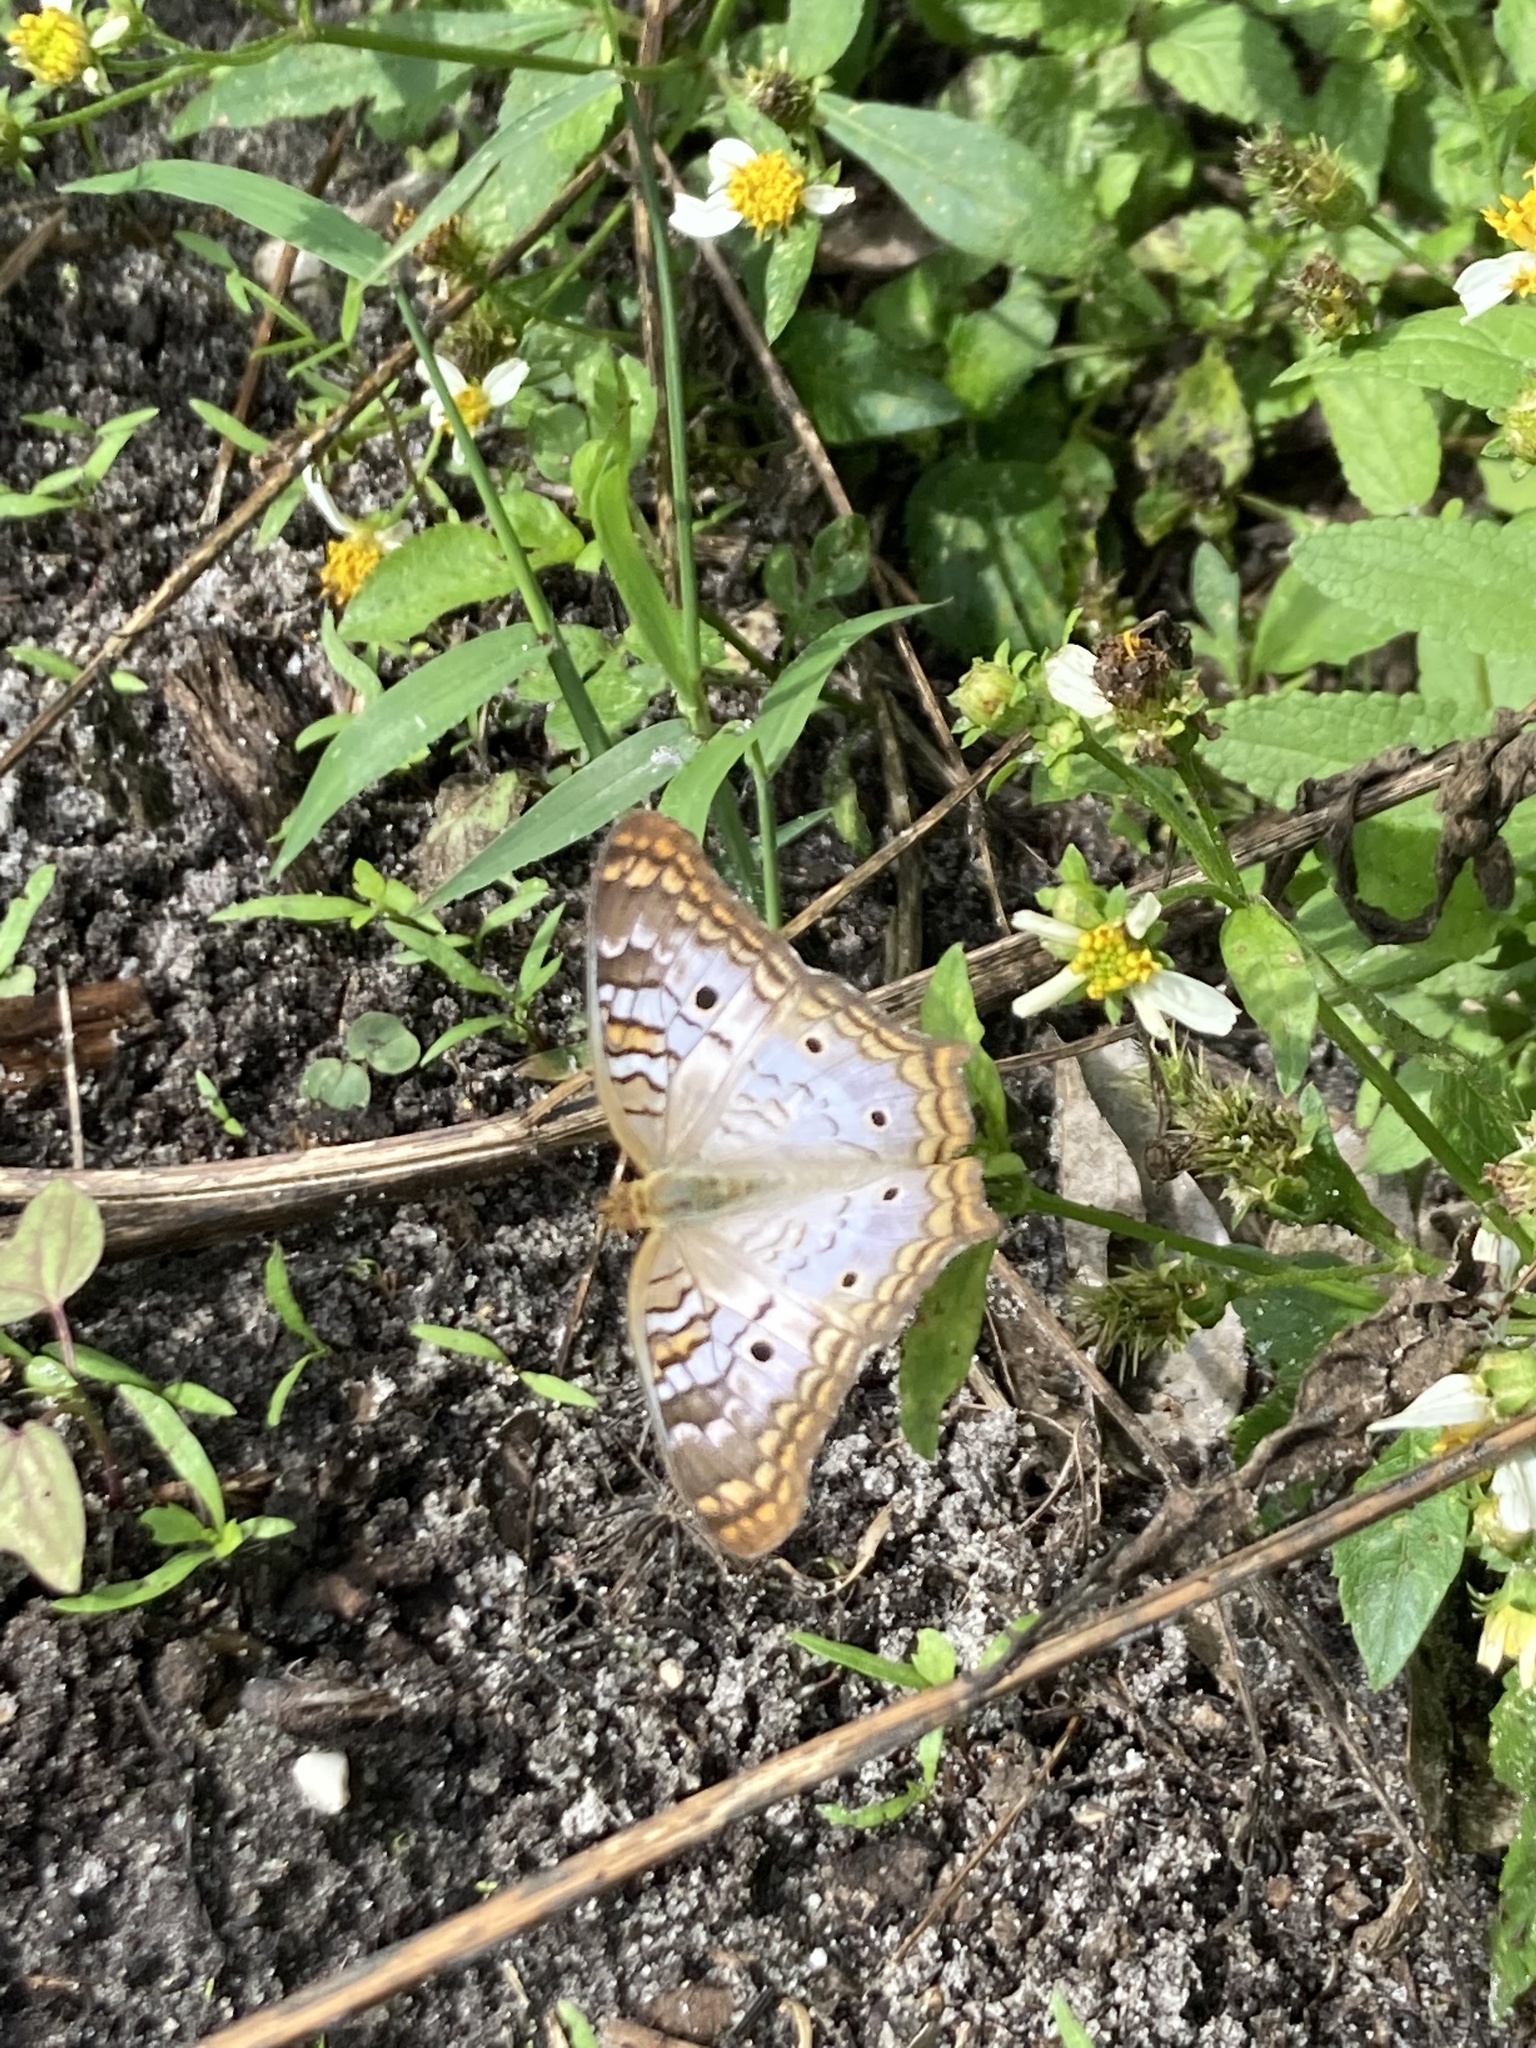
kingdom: Animalia
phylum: Arthropoda
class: Insecta
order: Lepidoptera
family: Nymphalidae
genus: Anartia
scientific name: Anartia jatrophae
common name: White peacock
